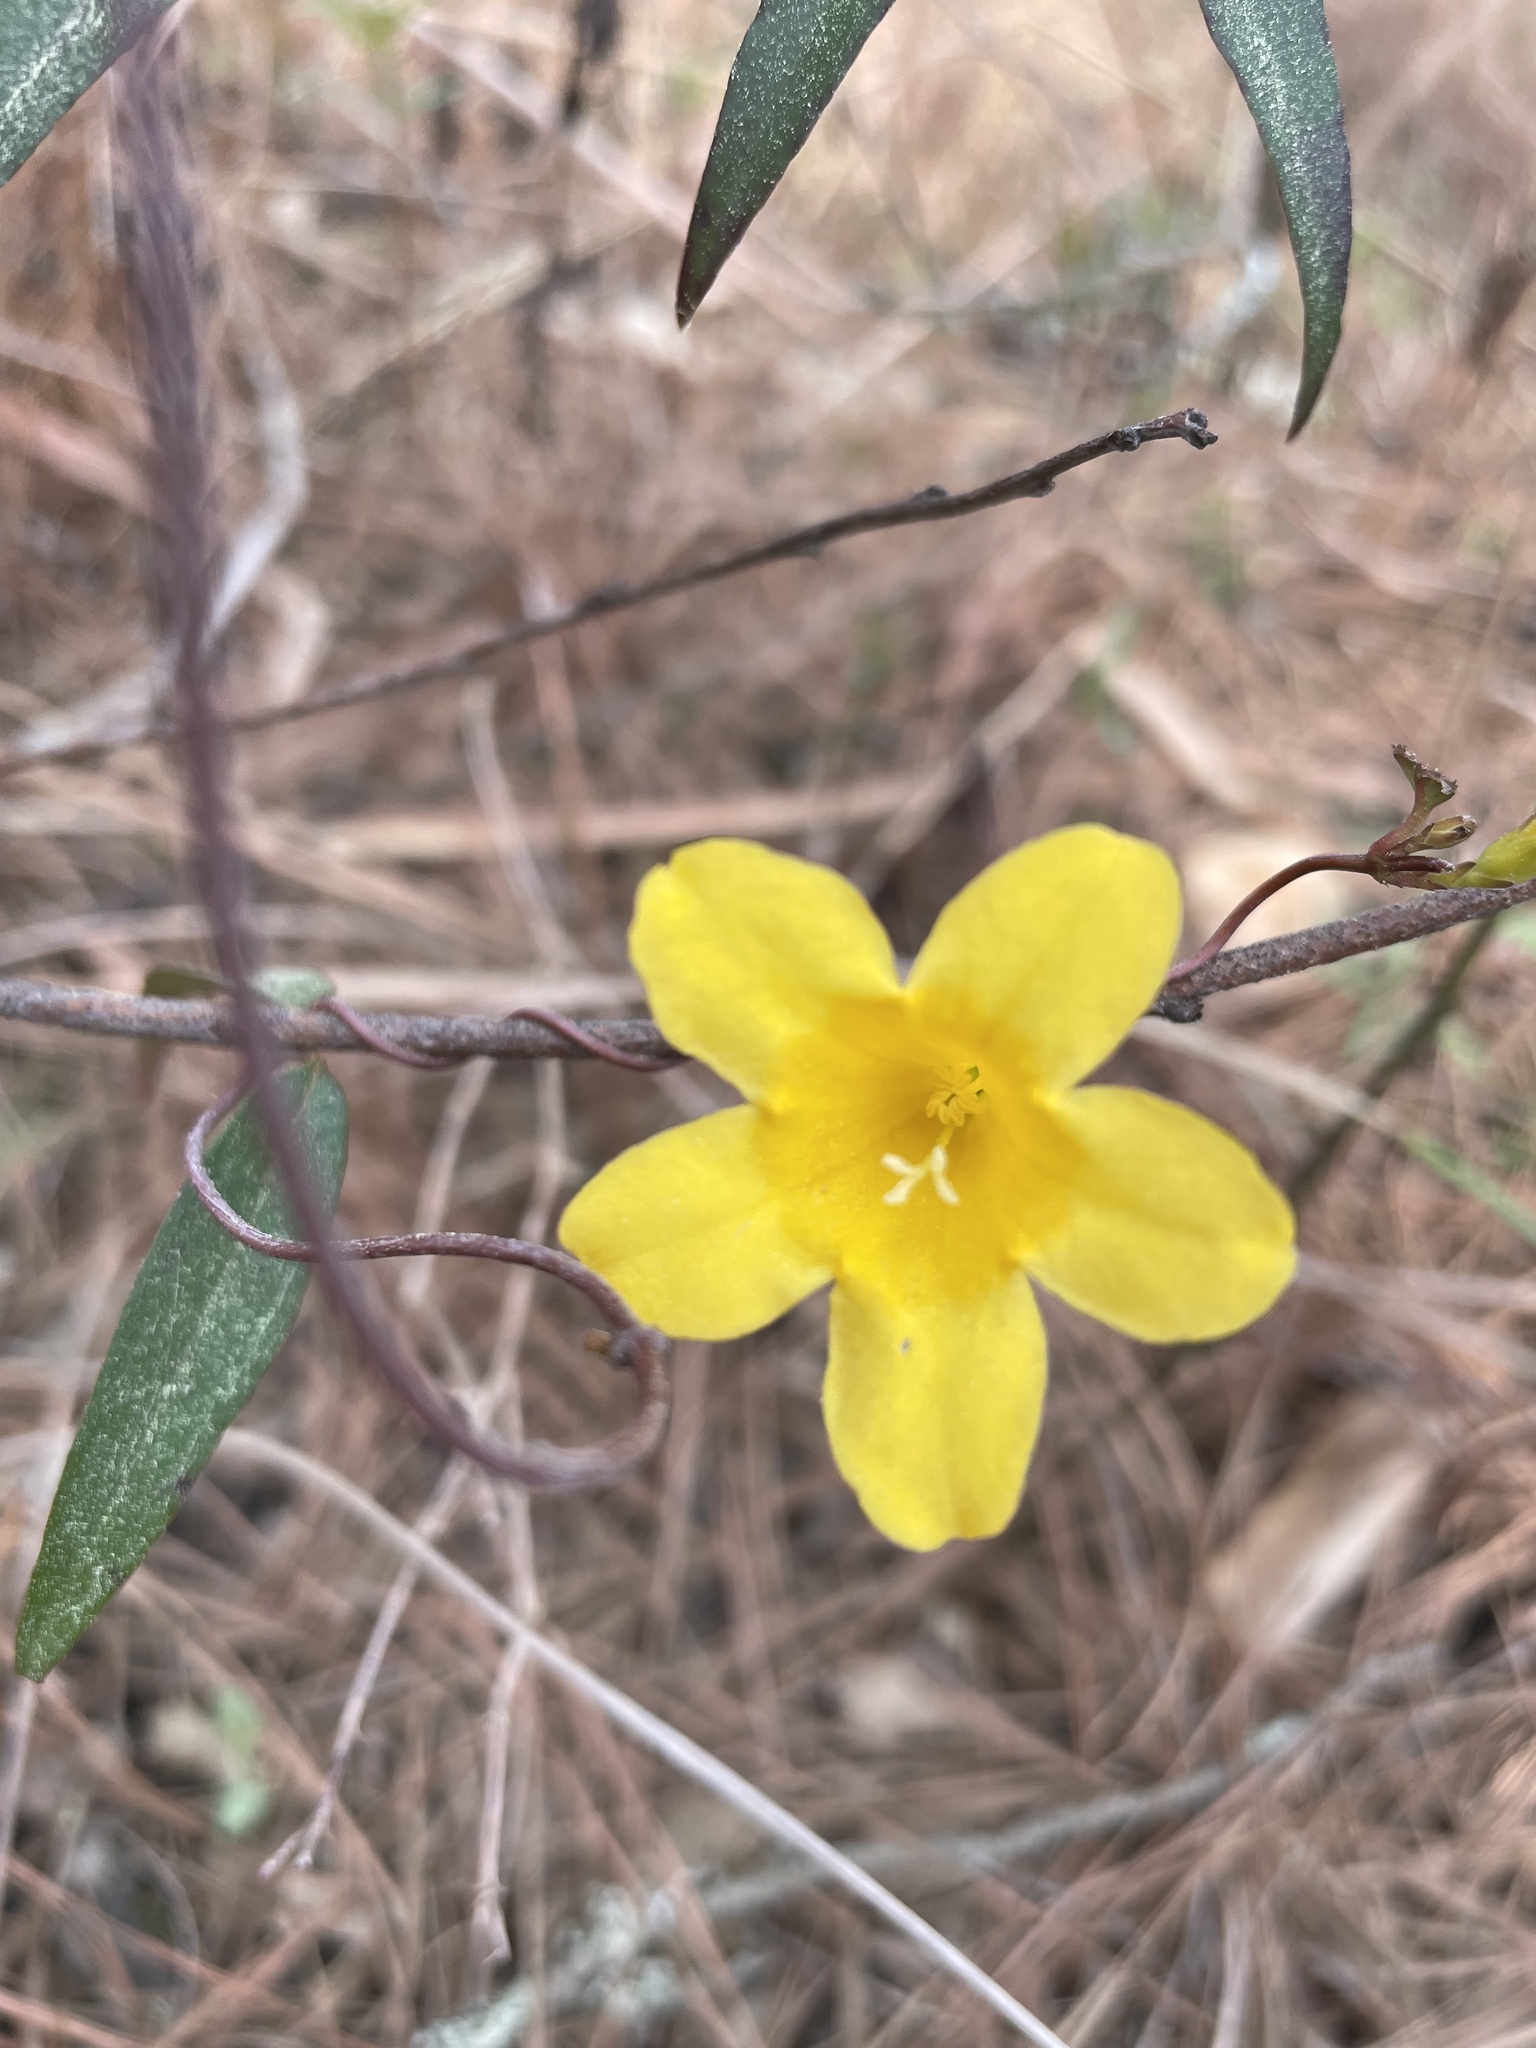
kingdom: Plantae
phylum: Tracheophyta
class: Magnoliopsida
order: Gentianales
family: Gelsemiaceae
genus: Gelsemium
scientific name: Gelsemium sempervirens
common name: Carolina-jasmine
